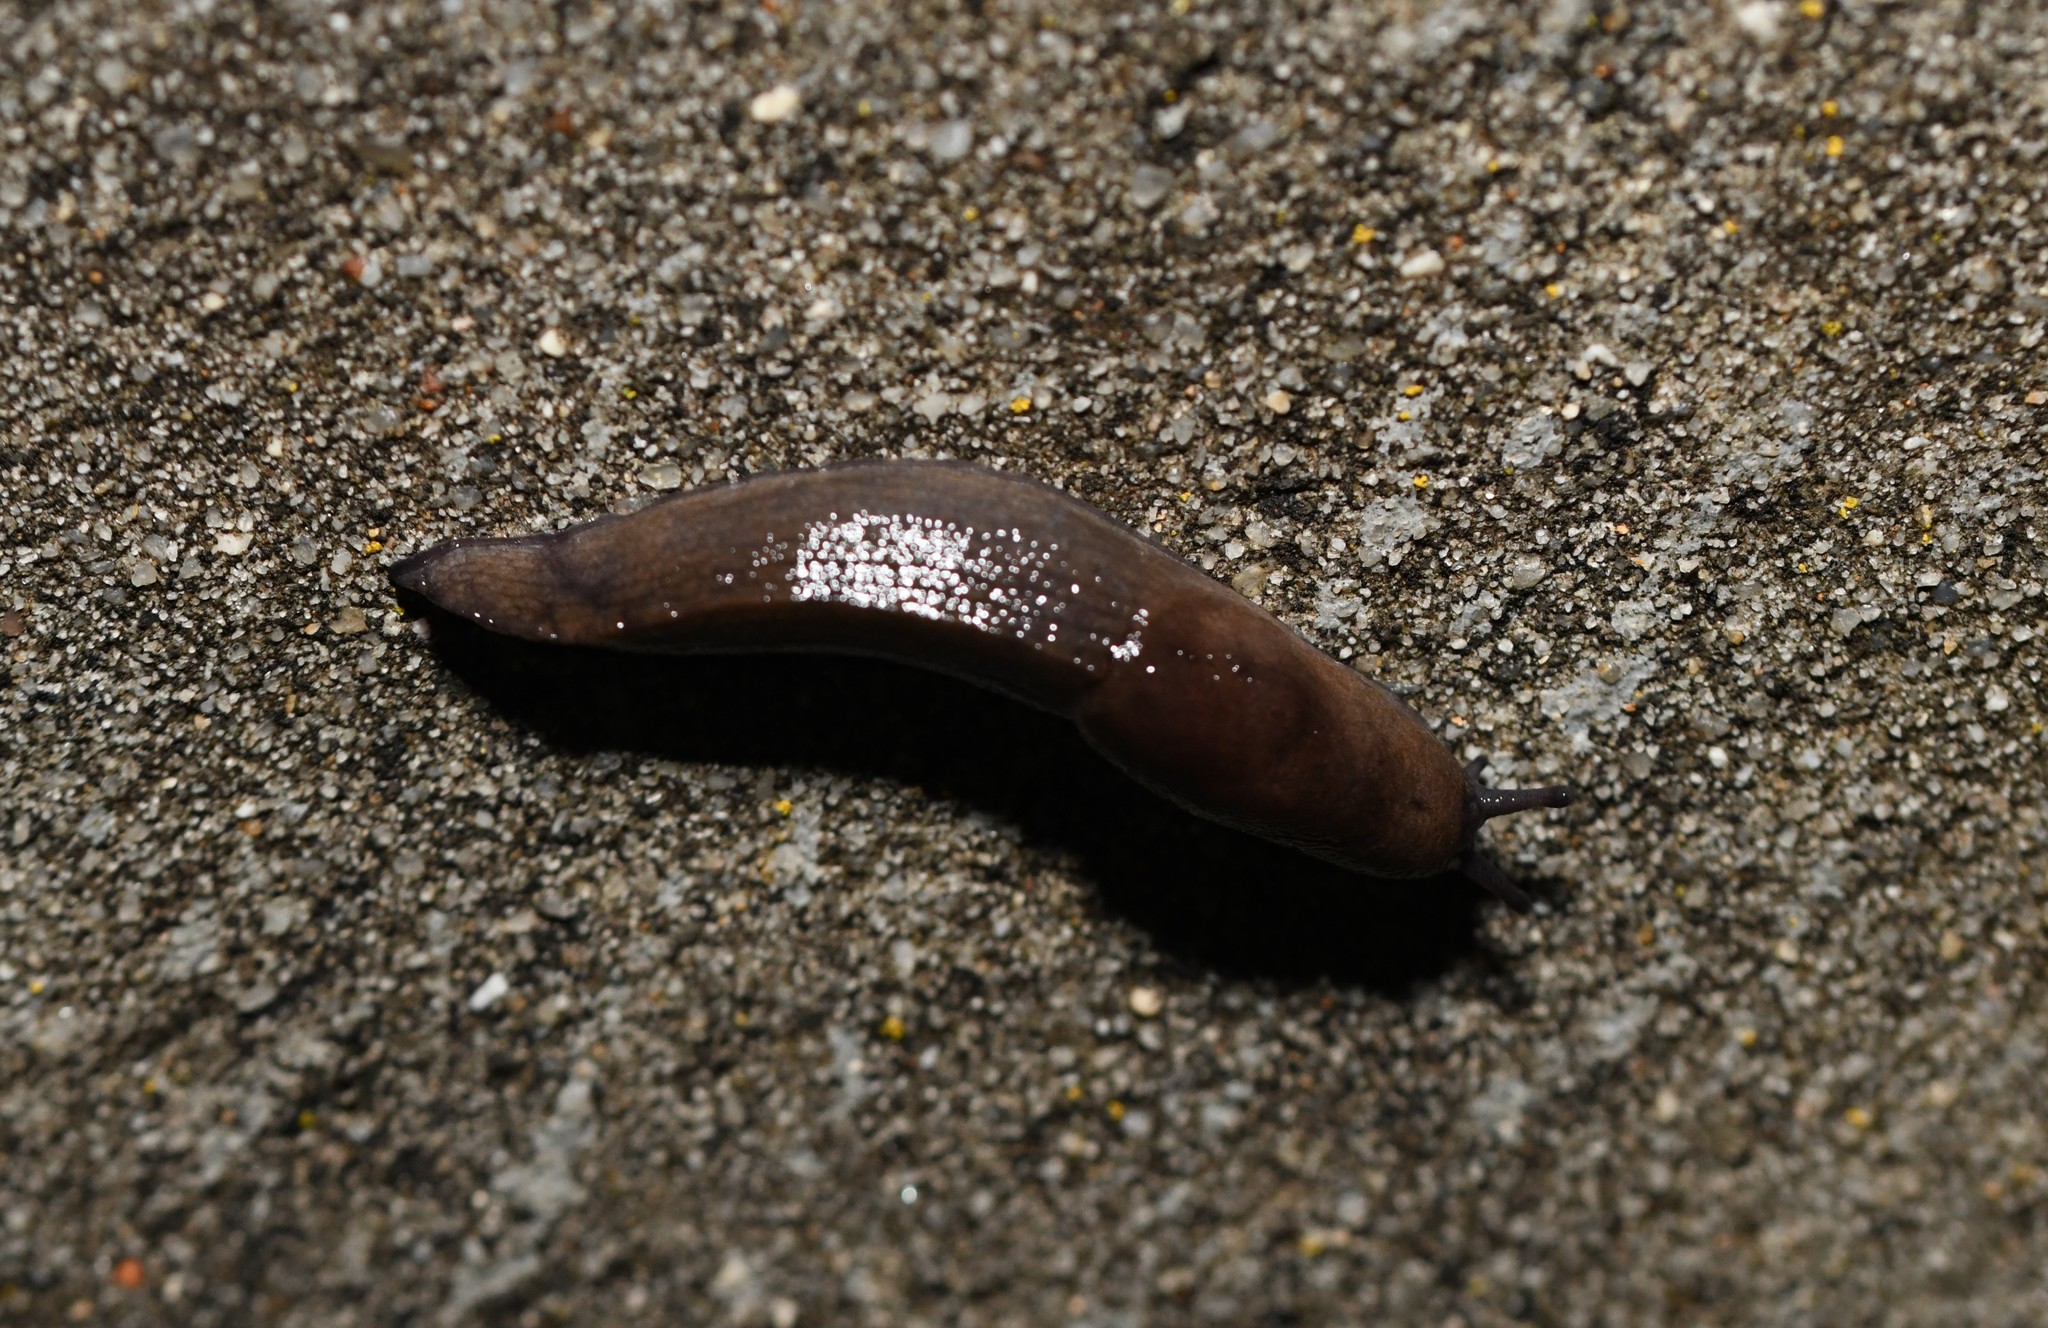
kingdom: Animalia
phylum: Mollusca
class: Gastropoda
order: Stylommatophora
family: Milacidae
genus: Milax
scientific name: Milax gagates
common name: Greenhouse slug
